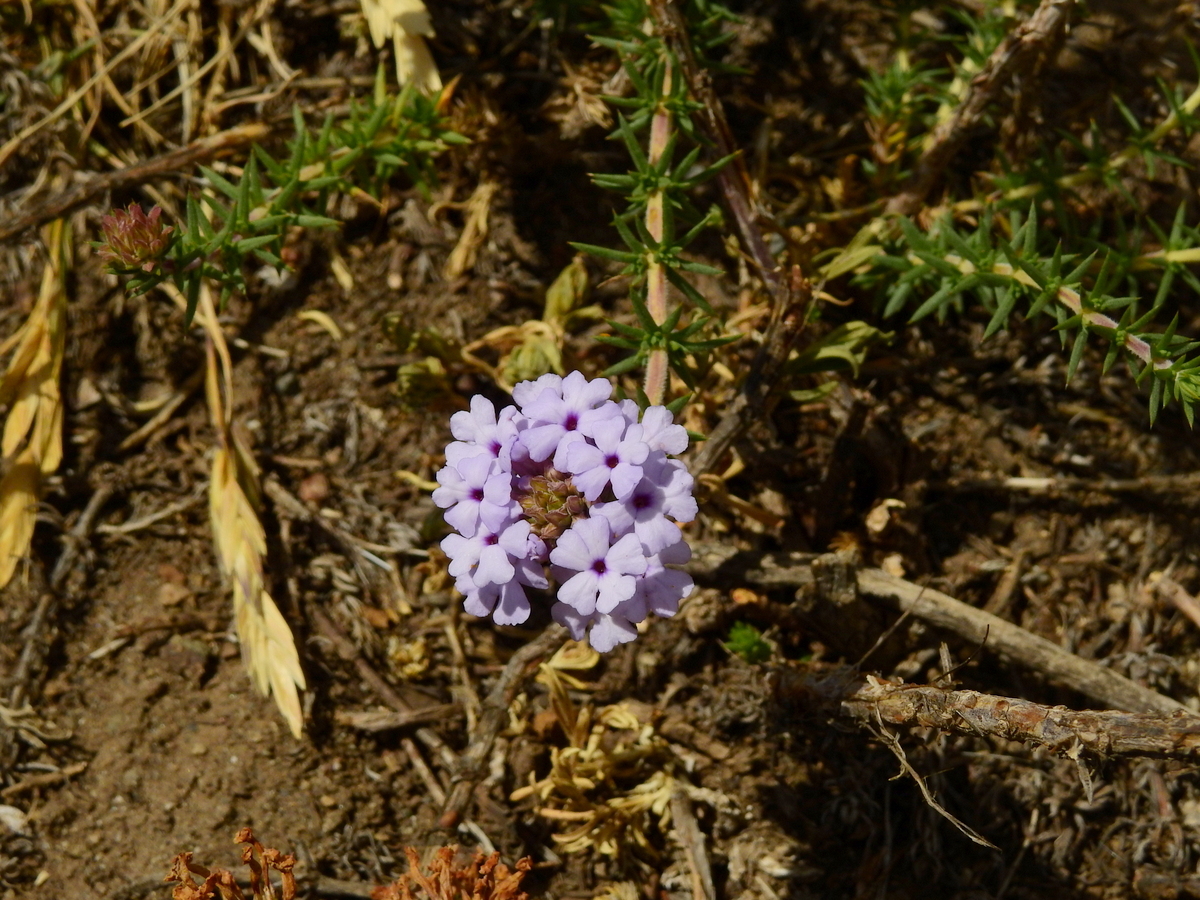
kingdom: Plantae
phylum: Tracheophyta
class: Magnoliopsida
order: Lamiales
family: Verbenaceae
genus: Junellia
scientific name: Junellia seriphioides
